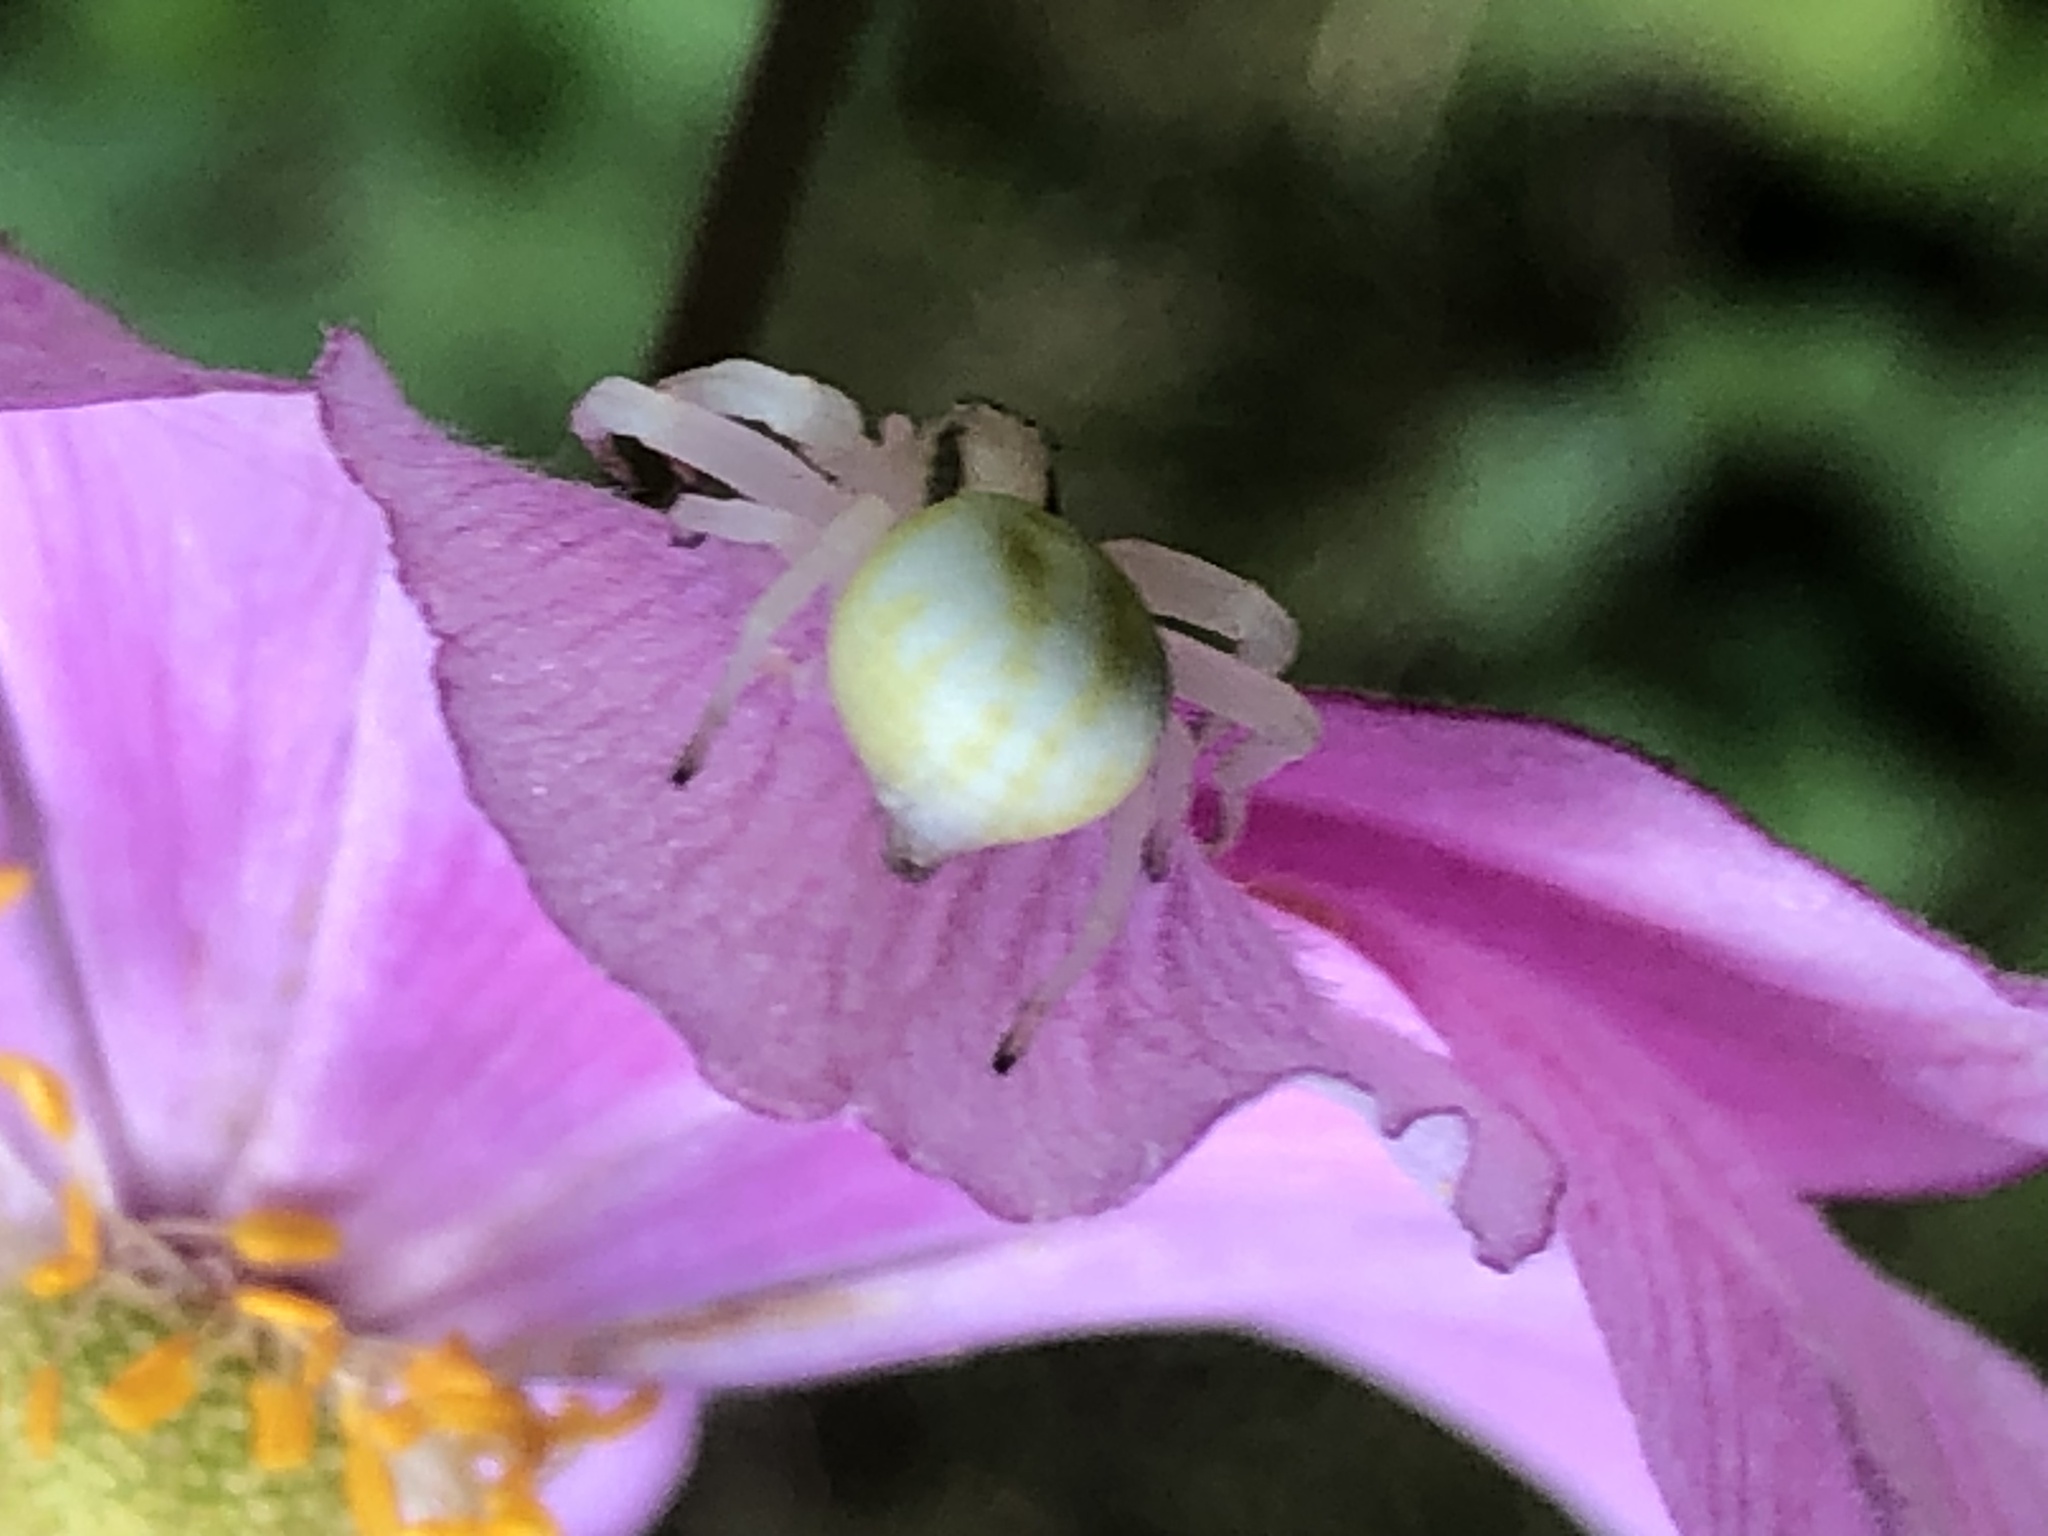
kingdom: Animalia
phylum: Arthropoda
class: Arachnida
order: Araneae
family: Thomisidae
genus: Misumena
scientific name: Misumena vatia
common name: Goldenrod crab spider
